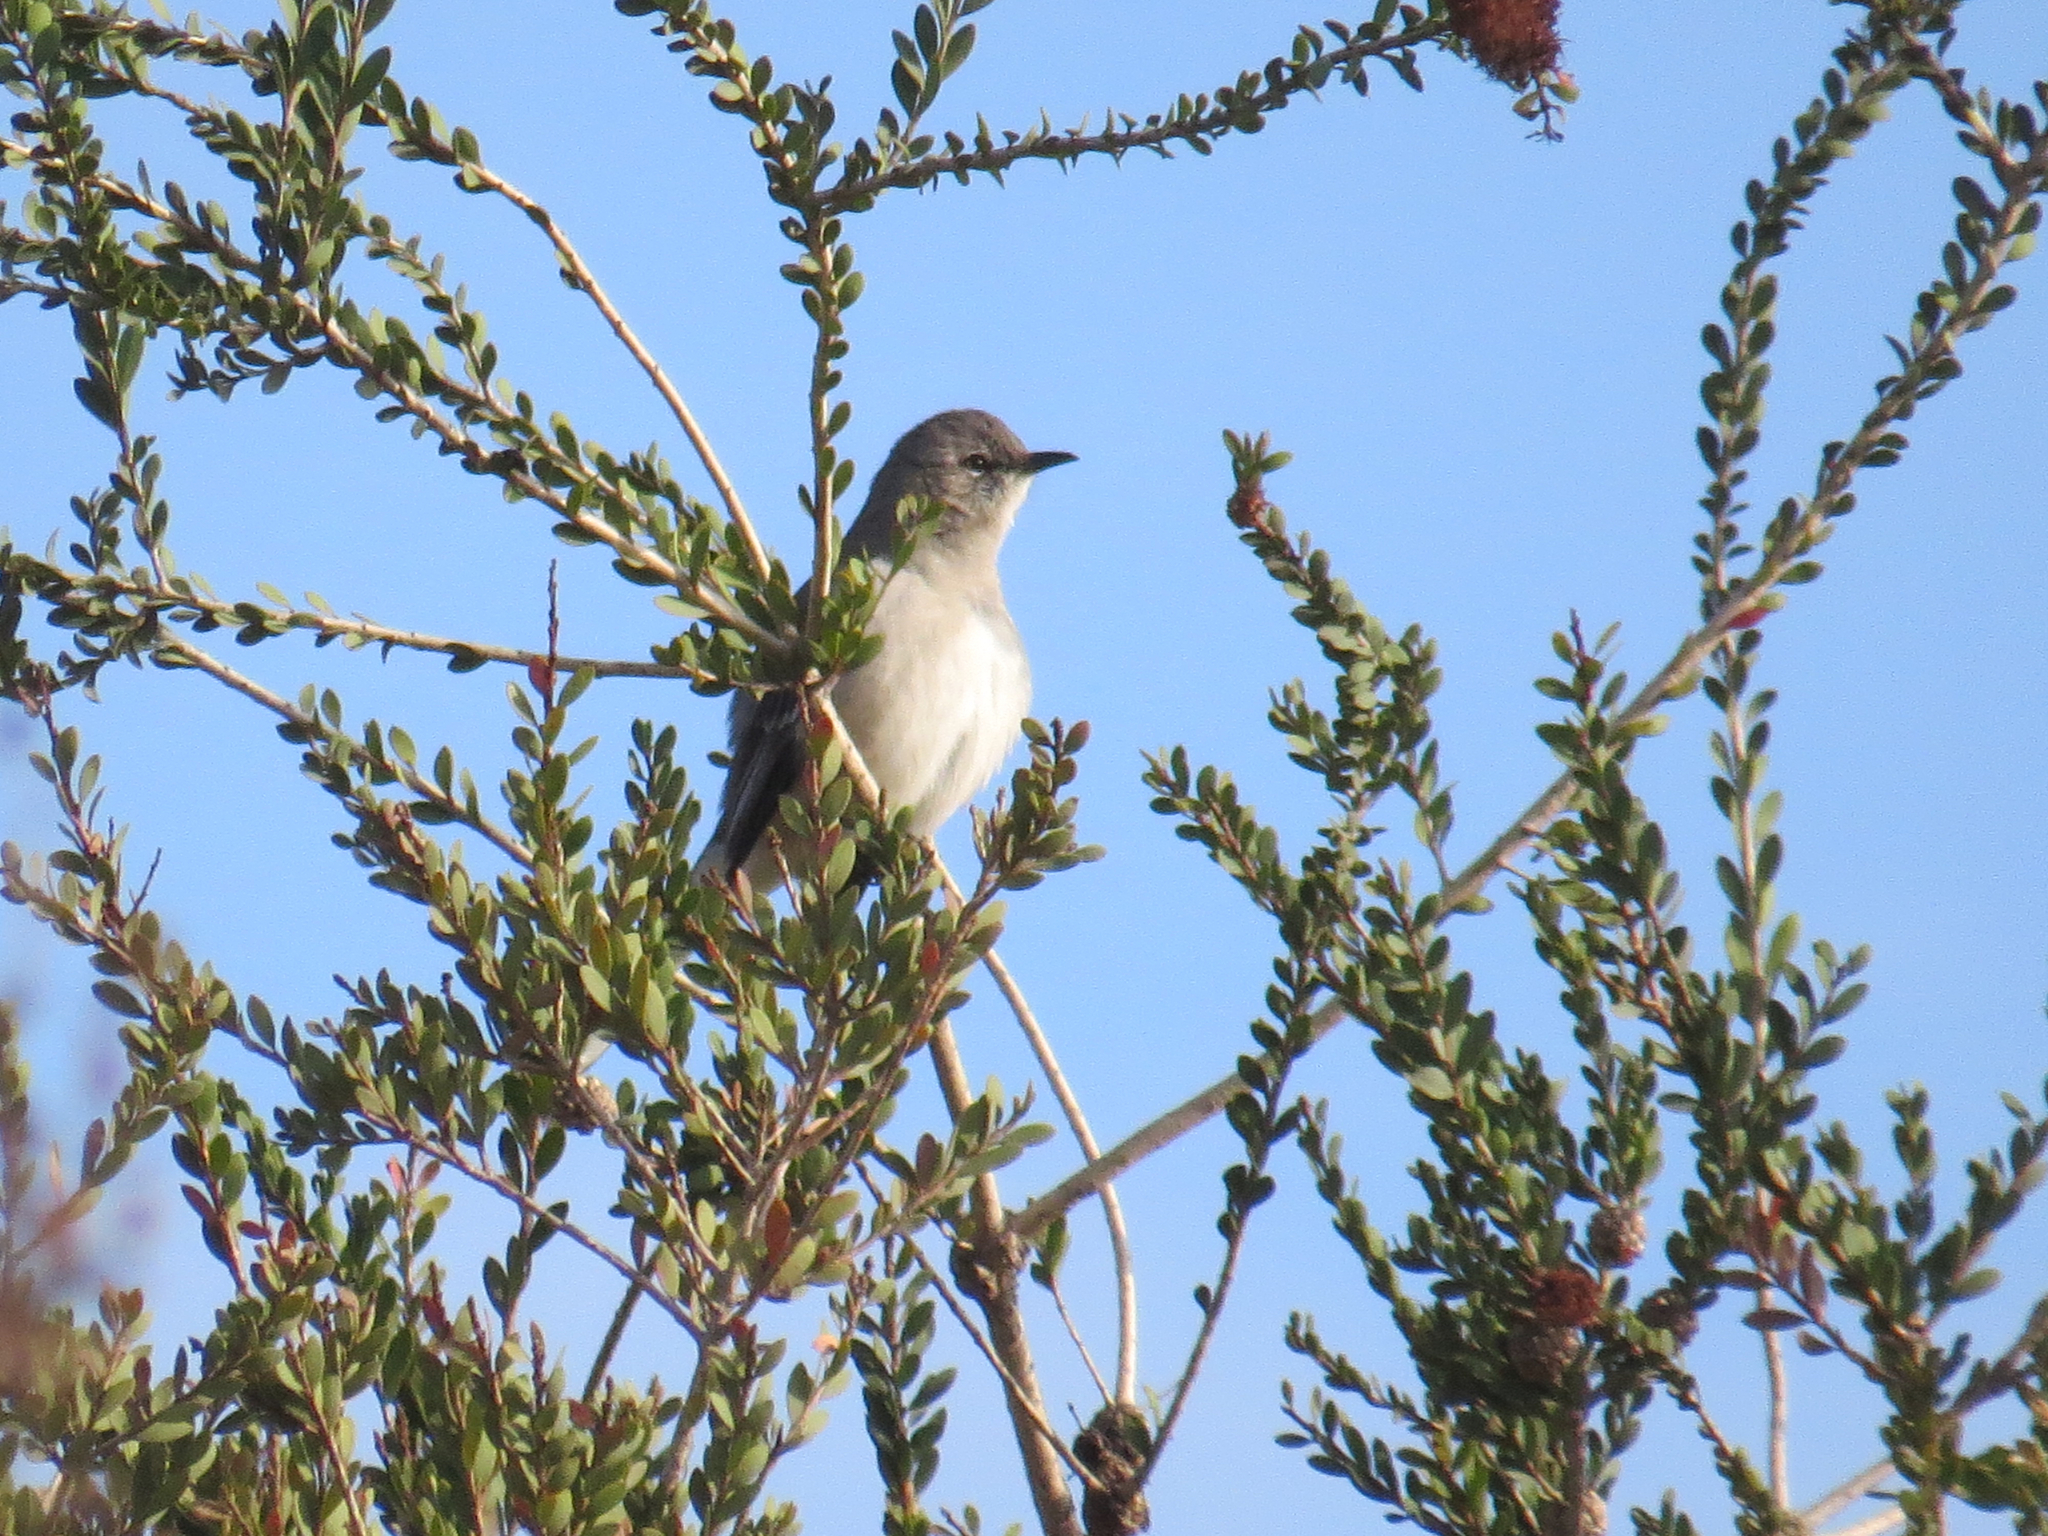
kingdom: Animalia
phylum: Chordata
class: Aves
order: Passeriformes
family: Mimidae
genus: Mimus
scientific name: Mimus polyglottos
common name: Northern mockingbird
